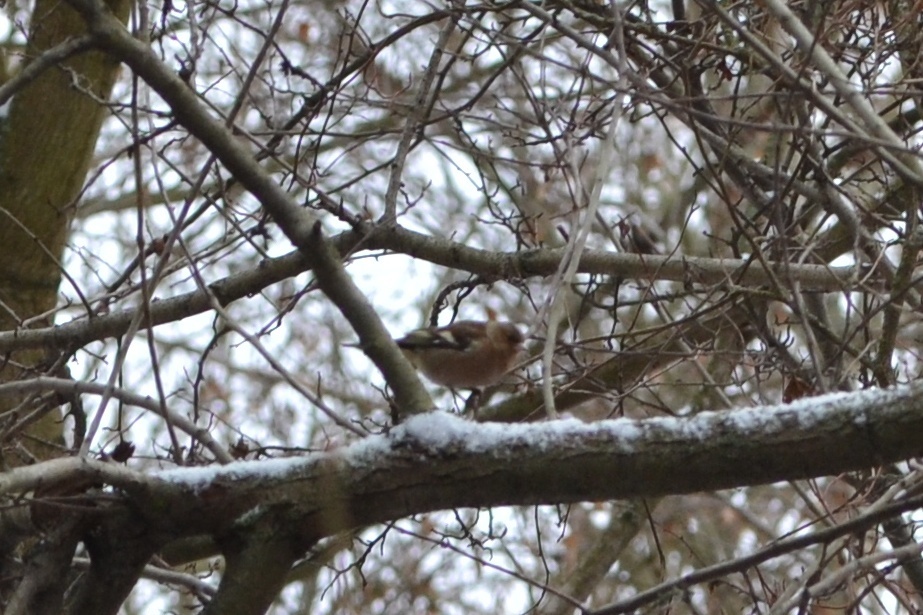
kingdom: Animalia
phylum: Chordata
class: Aves
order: Passeriformes
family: Fringillidae
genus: Fringilla
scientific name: Fringilla coelebs
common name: Common chaffinch
